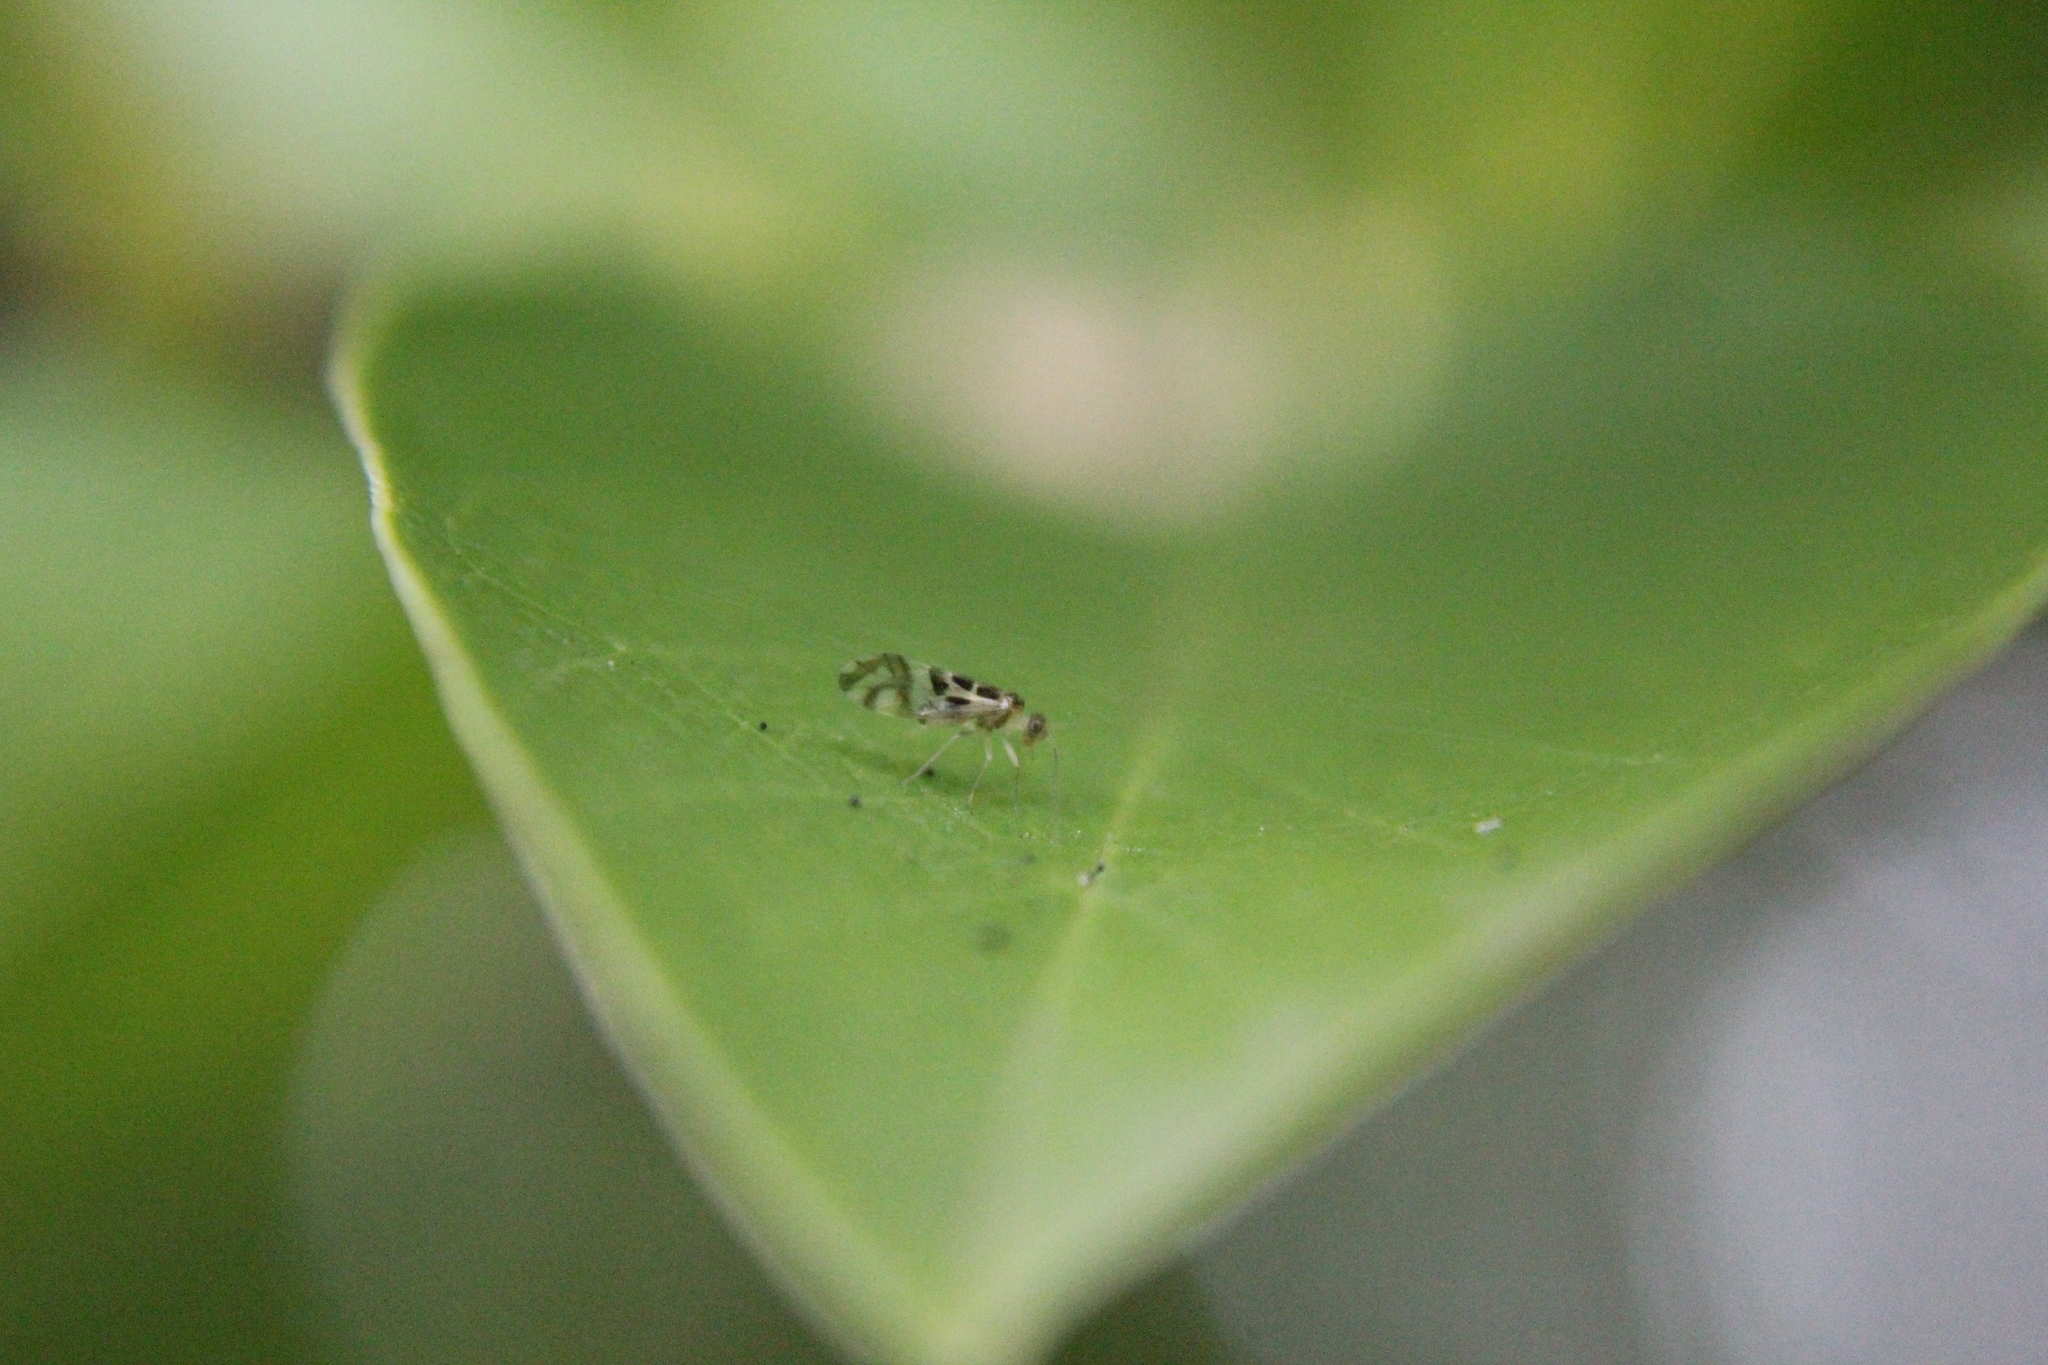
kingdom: Animalia
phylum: Arthropoda
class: Insecta
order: Psocodea
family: Stenopsocidae
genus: Graphopsocus
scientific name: Graphopsocus cruciatus
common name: Lizard bark louse
